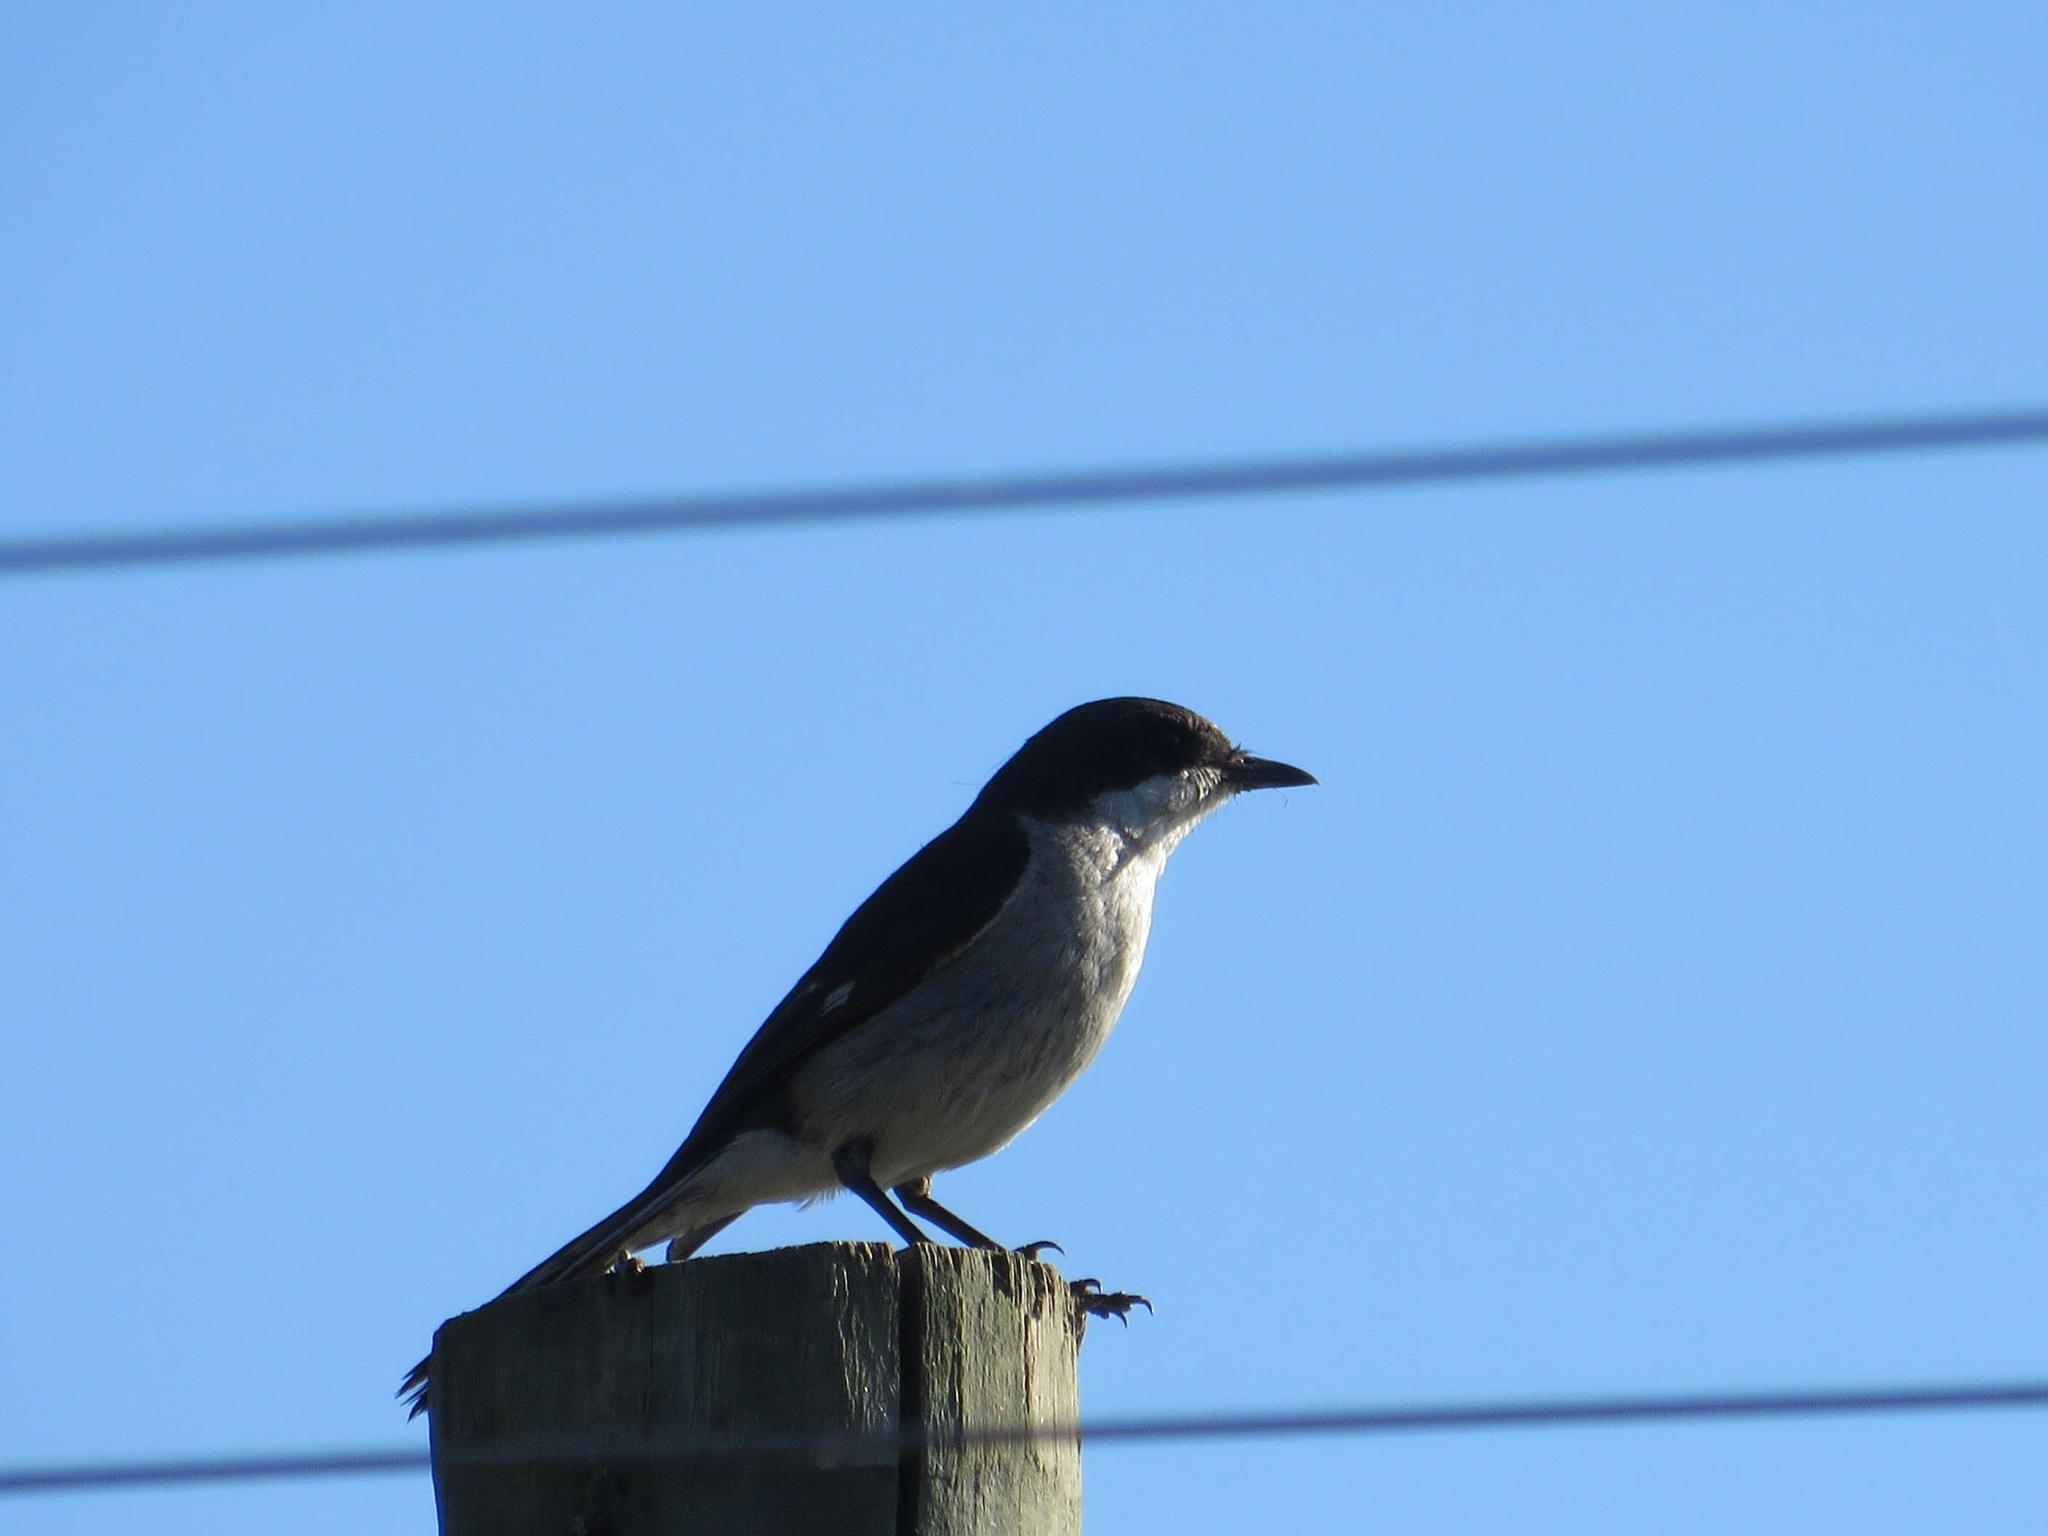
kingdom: Animalia
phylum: Chordata
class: Aves
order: Passeriformes
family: Muscicapidae
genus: Sigelus
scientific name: Sigelus silens
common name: Fiscal flycatcher
